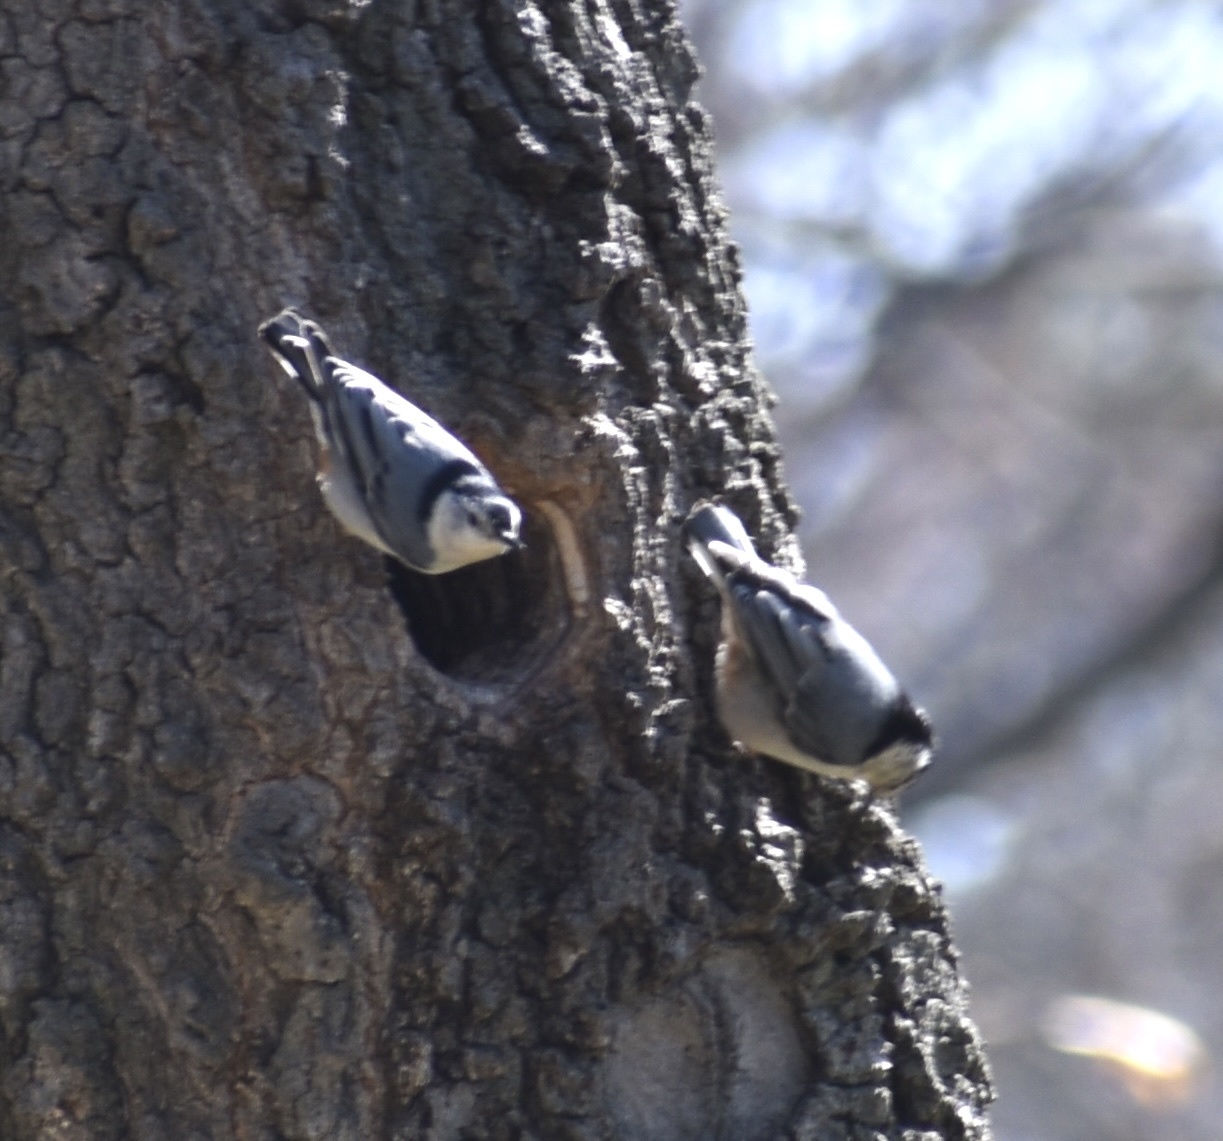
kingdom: Animalia
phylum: Chordata
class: Aves
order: Passeriformes
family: Sittidae
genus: Sitta
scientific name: Sitta carolinensis
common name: White-breasted nuthatch
